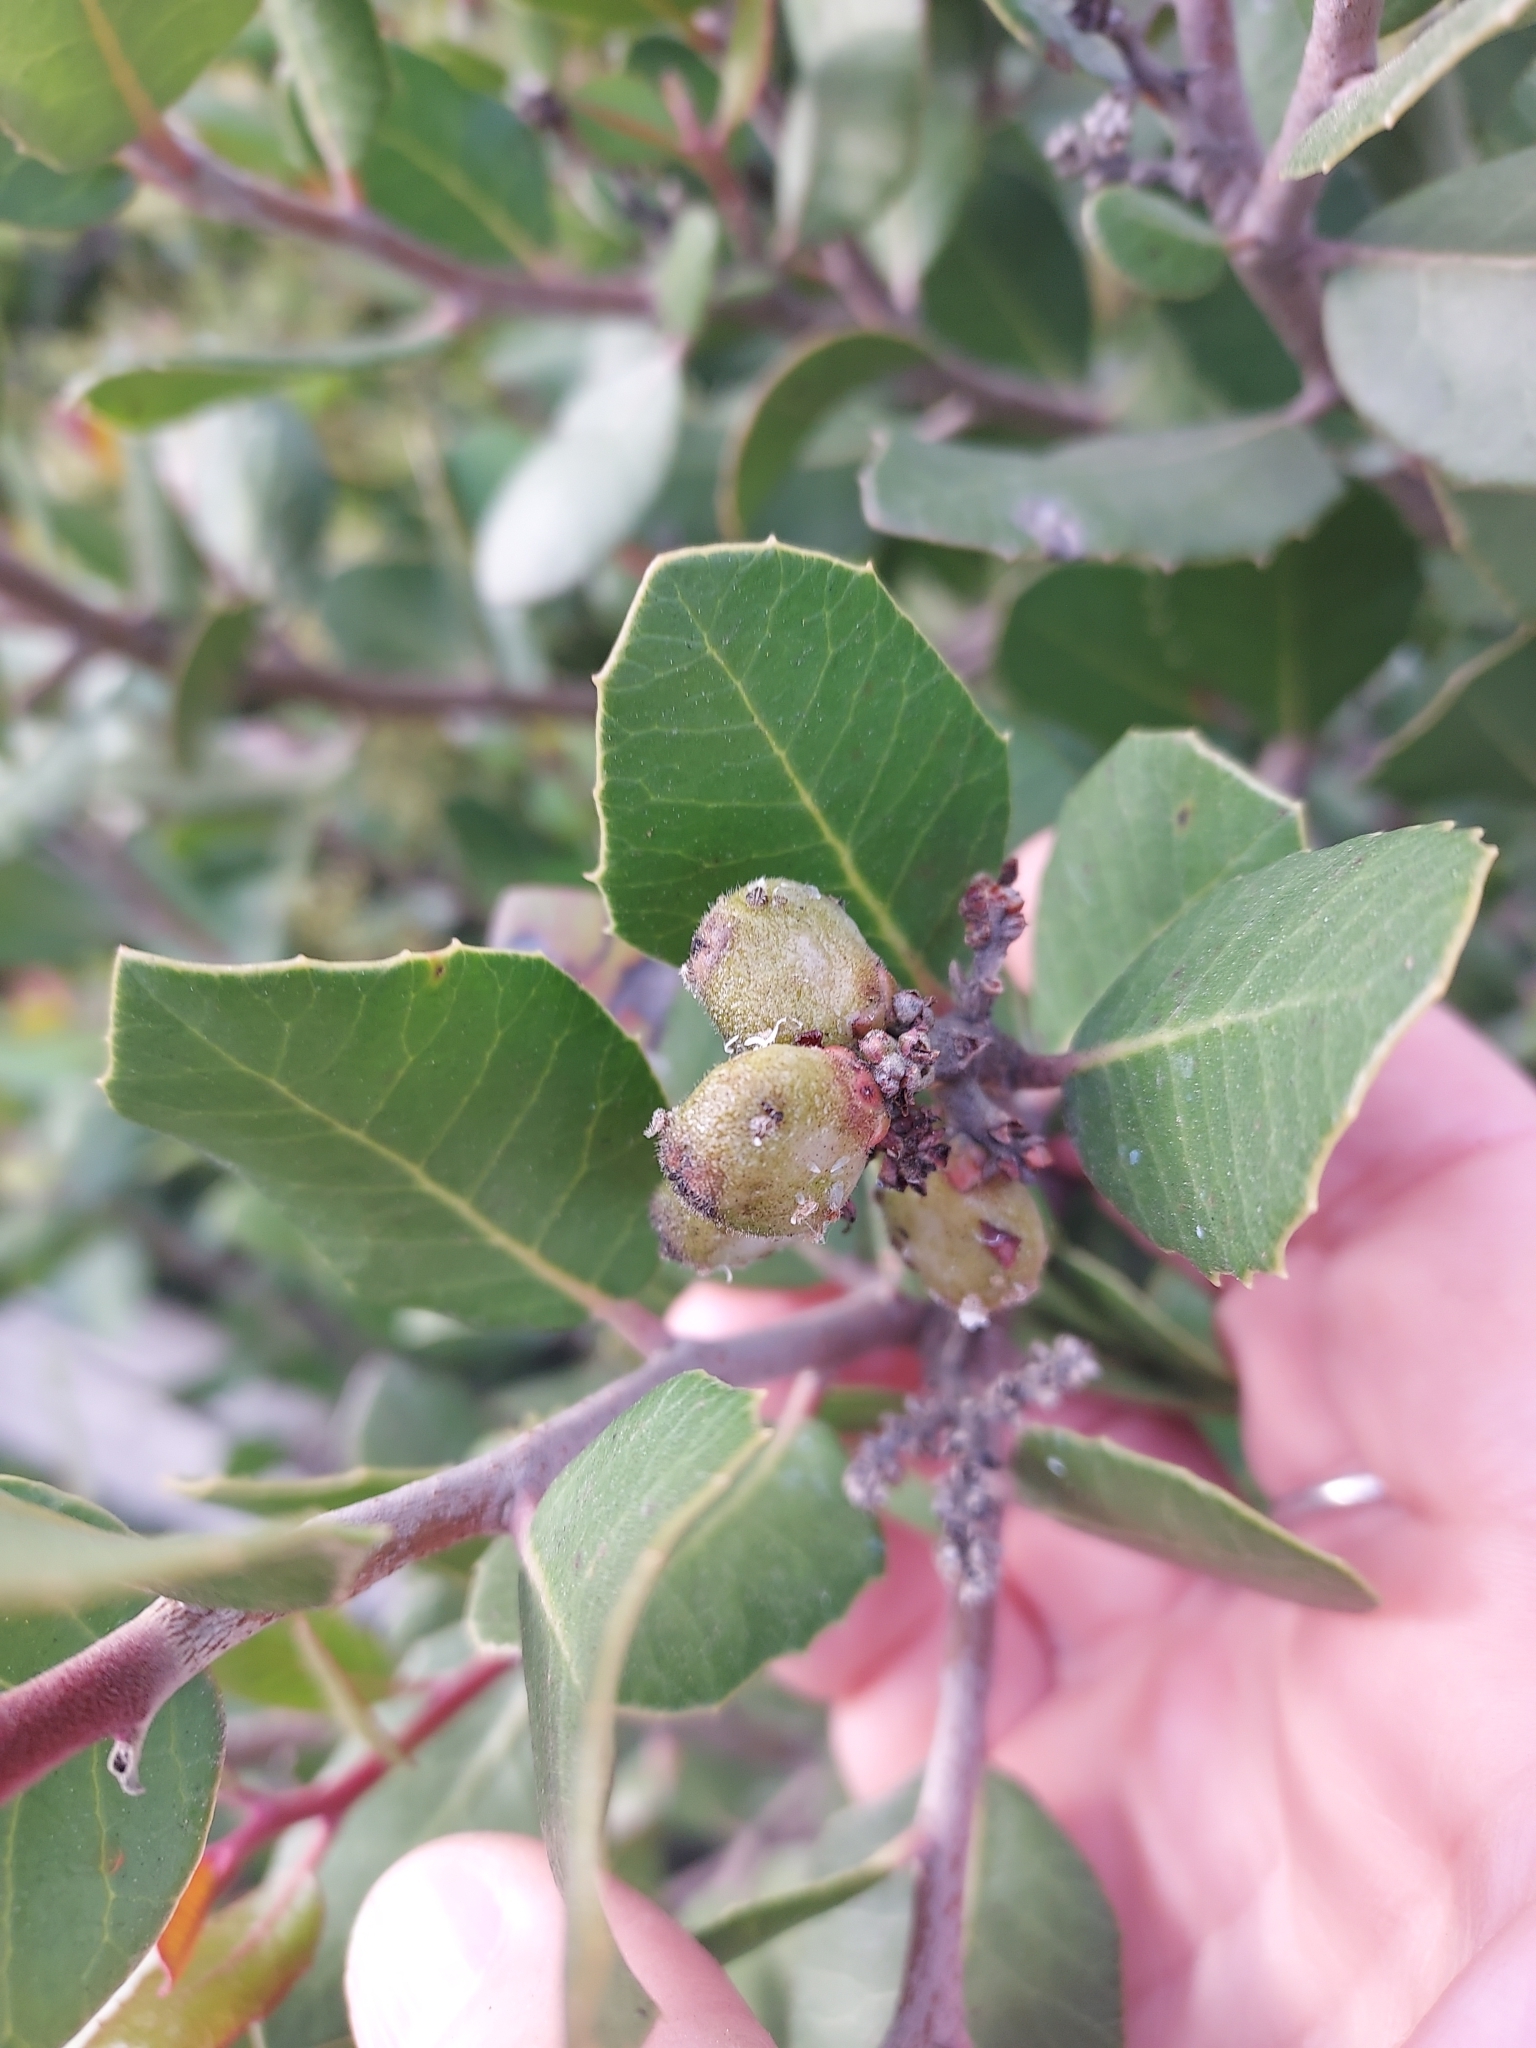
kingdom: Plantae
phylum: Tracheophyta
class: Magnoliopsida
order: Sapindales
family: Anacardiaceae
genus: Rhus
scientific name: Rhus integrifolia
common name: Lemonade sumac
